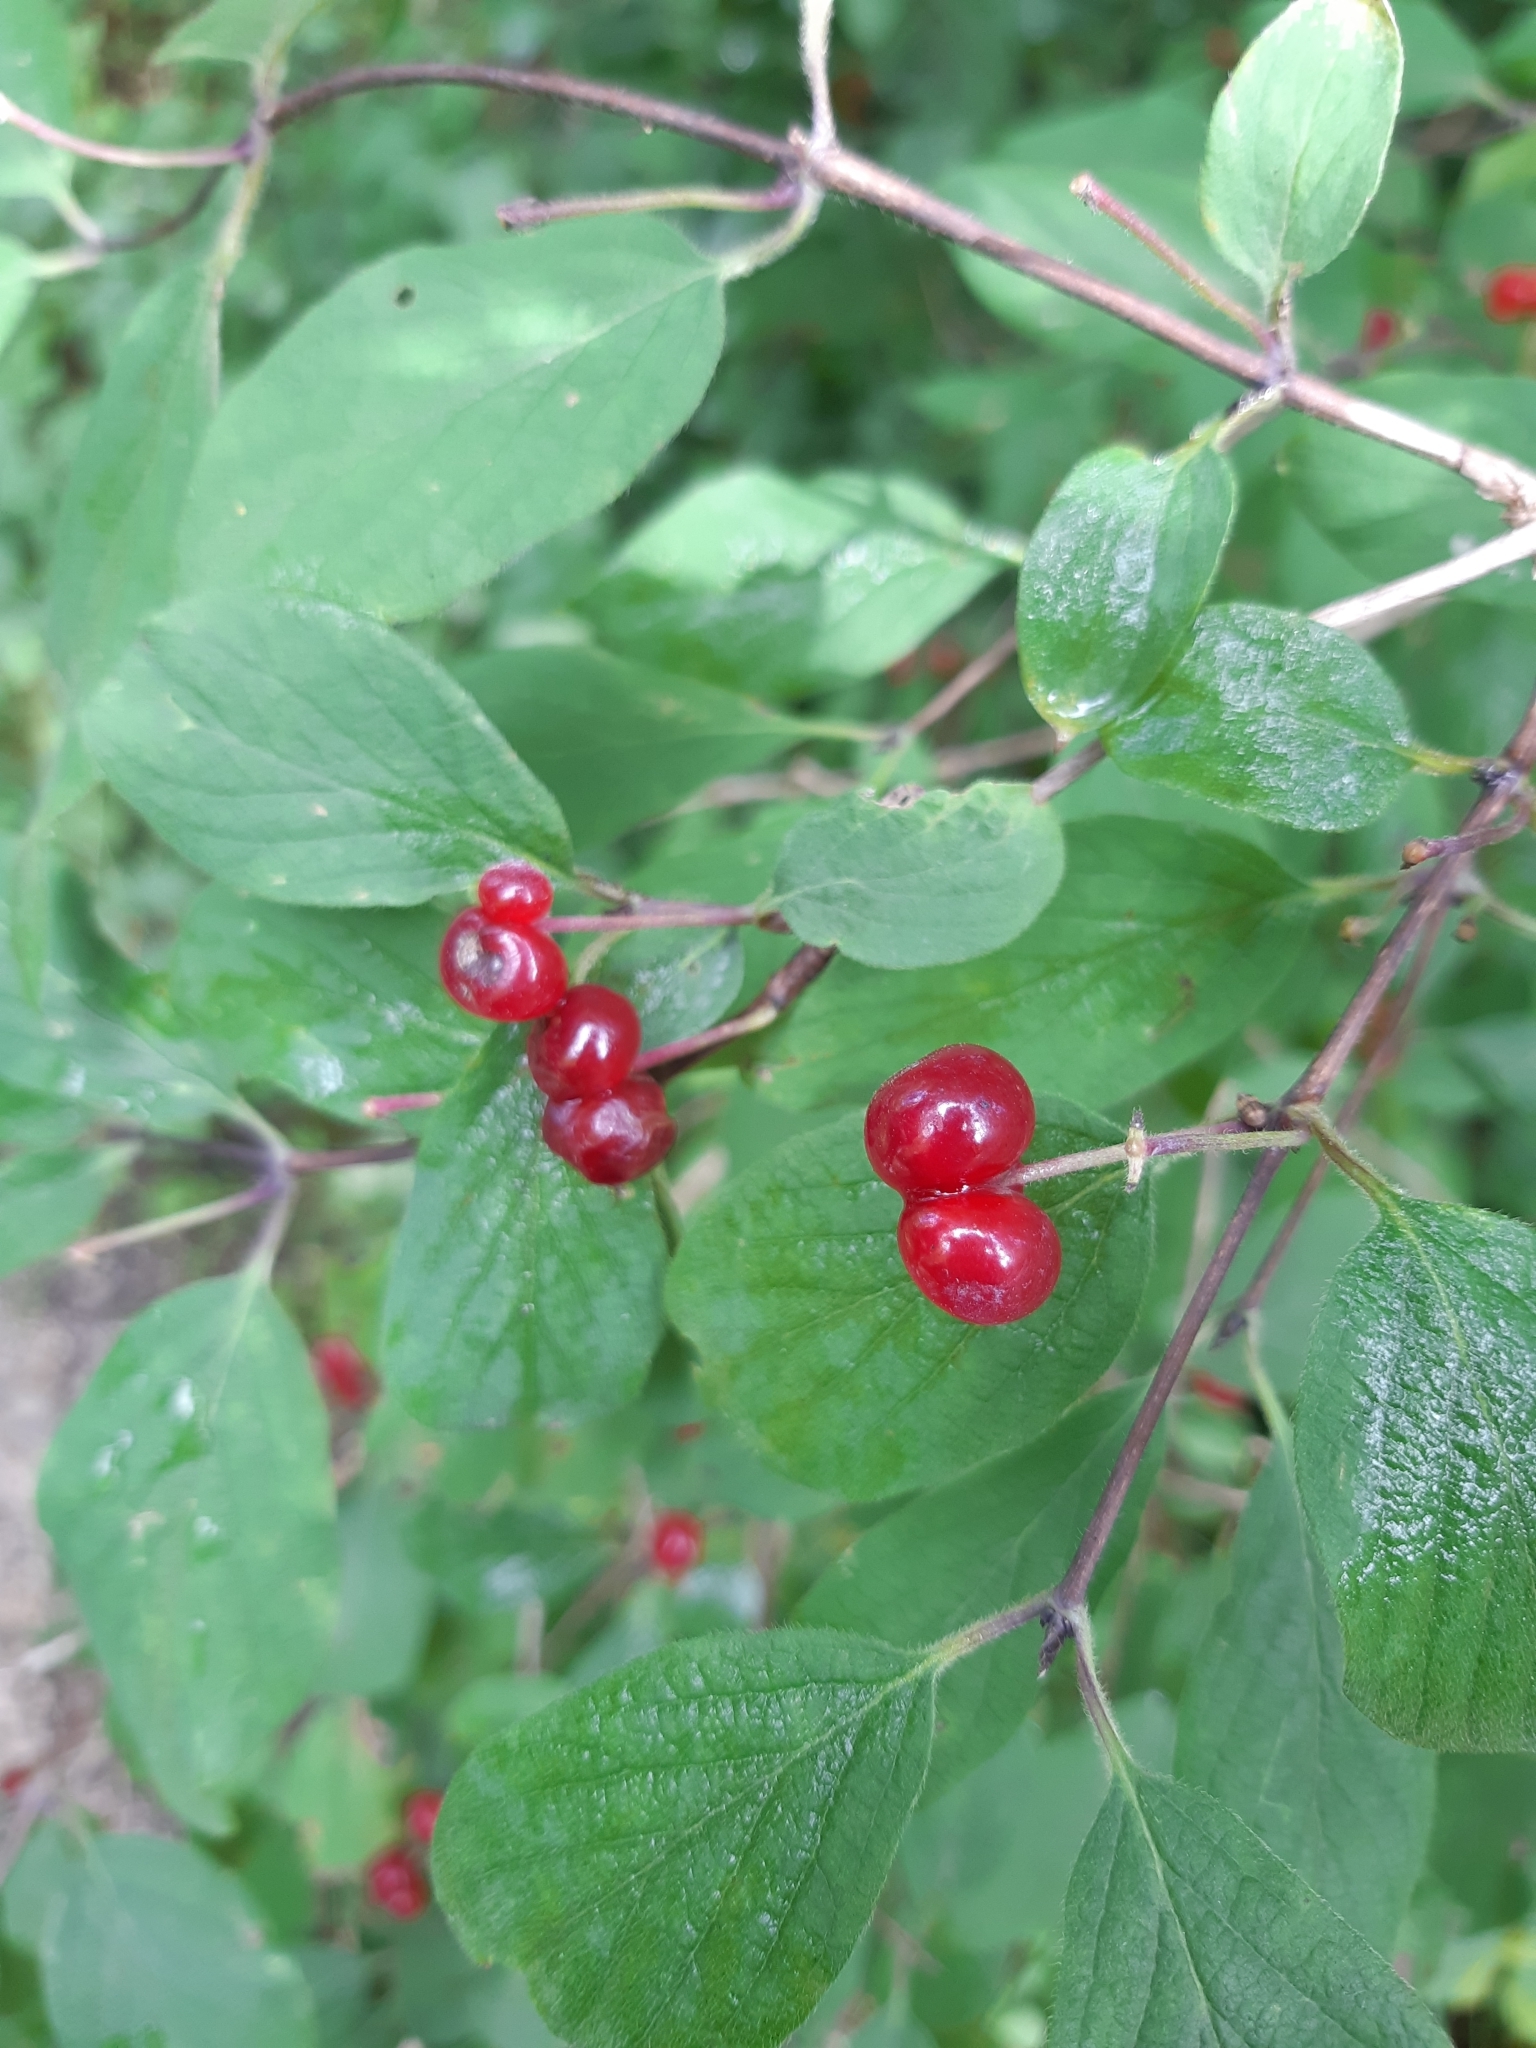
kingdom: Plantae
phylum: Tracheophyta
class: Magnoliopsida
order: Dipsacales
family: Caprifoliaceae
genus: Lonicera
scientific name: Lonicera xylosteum
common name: Fly honeysuckle
